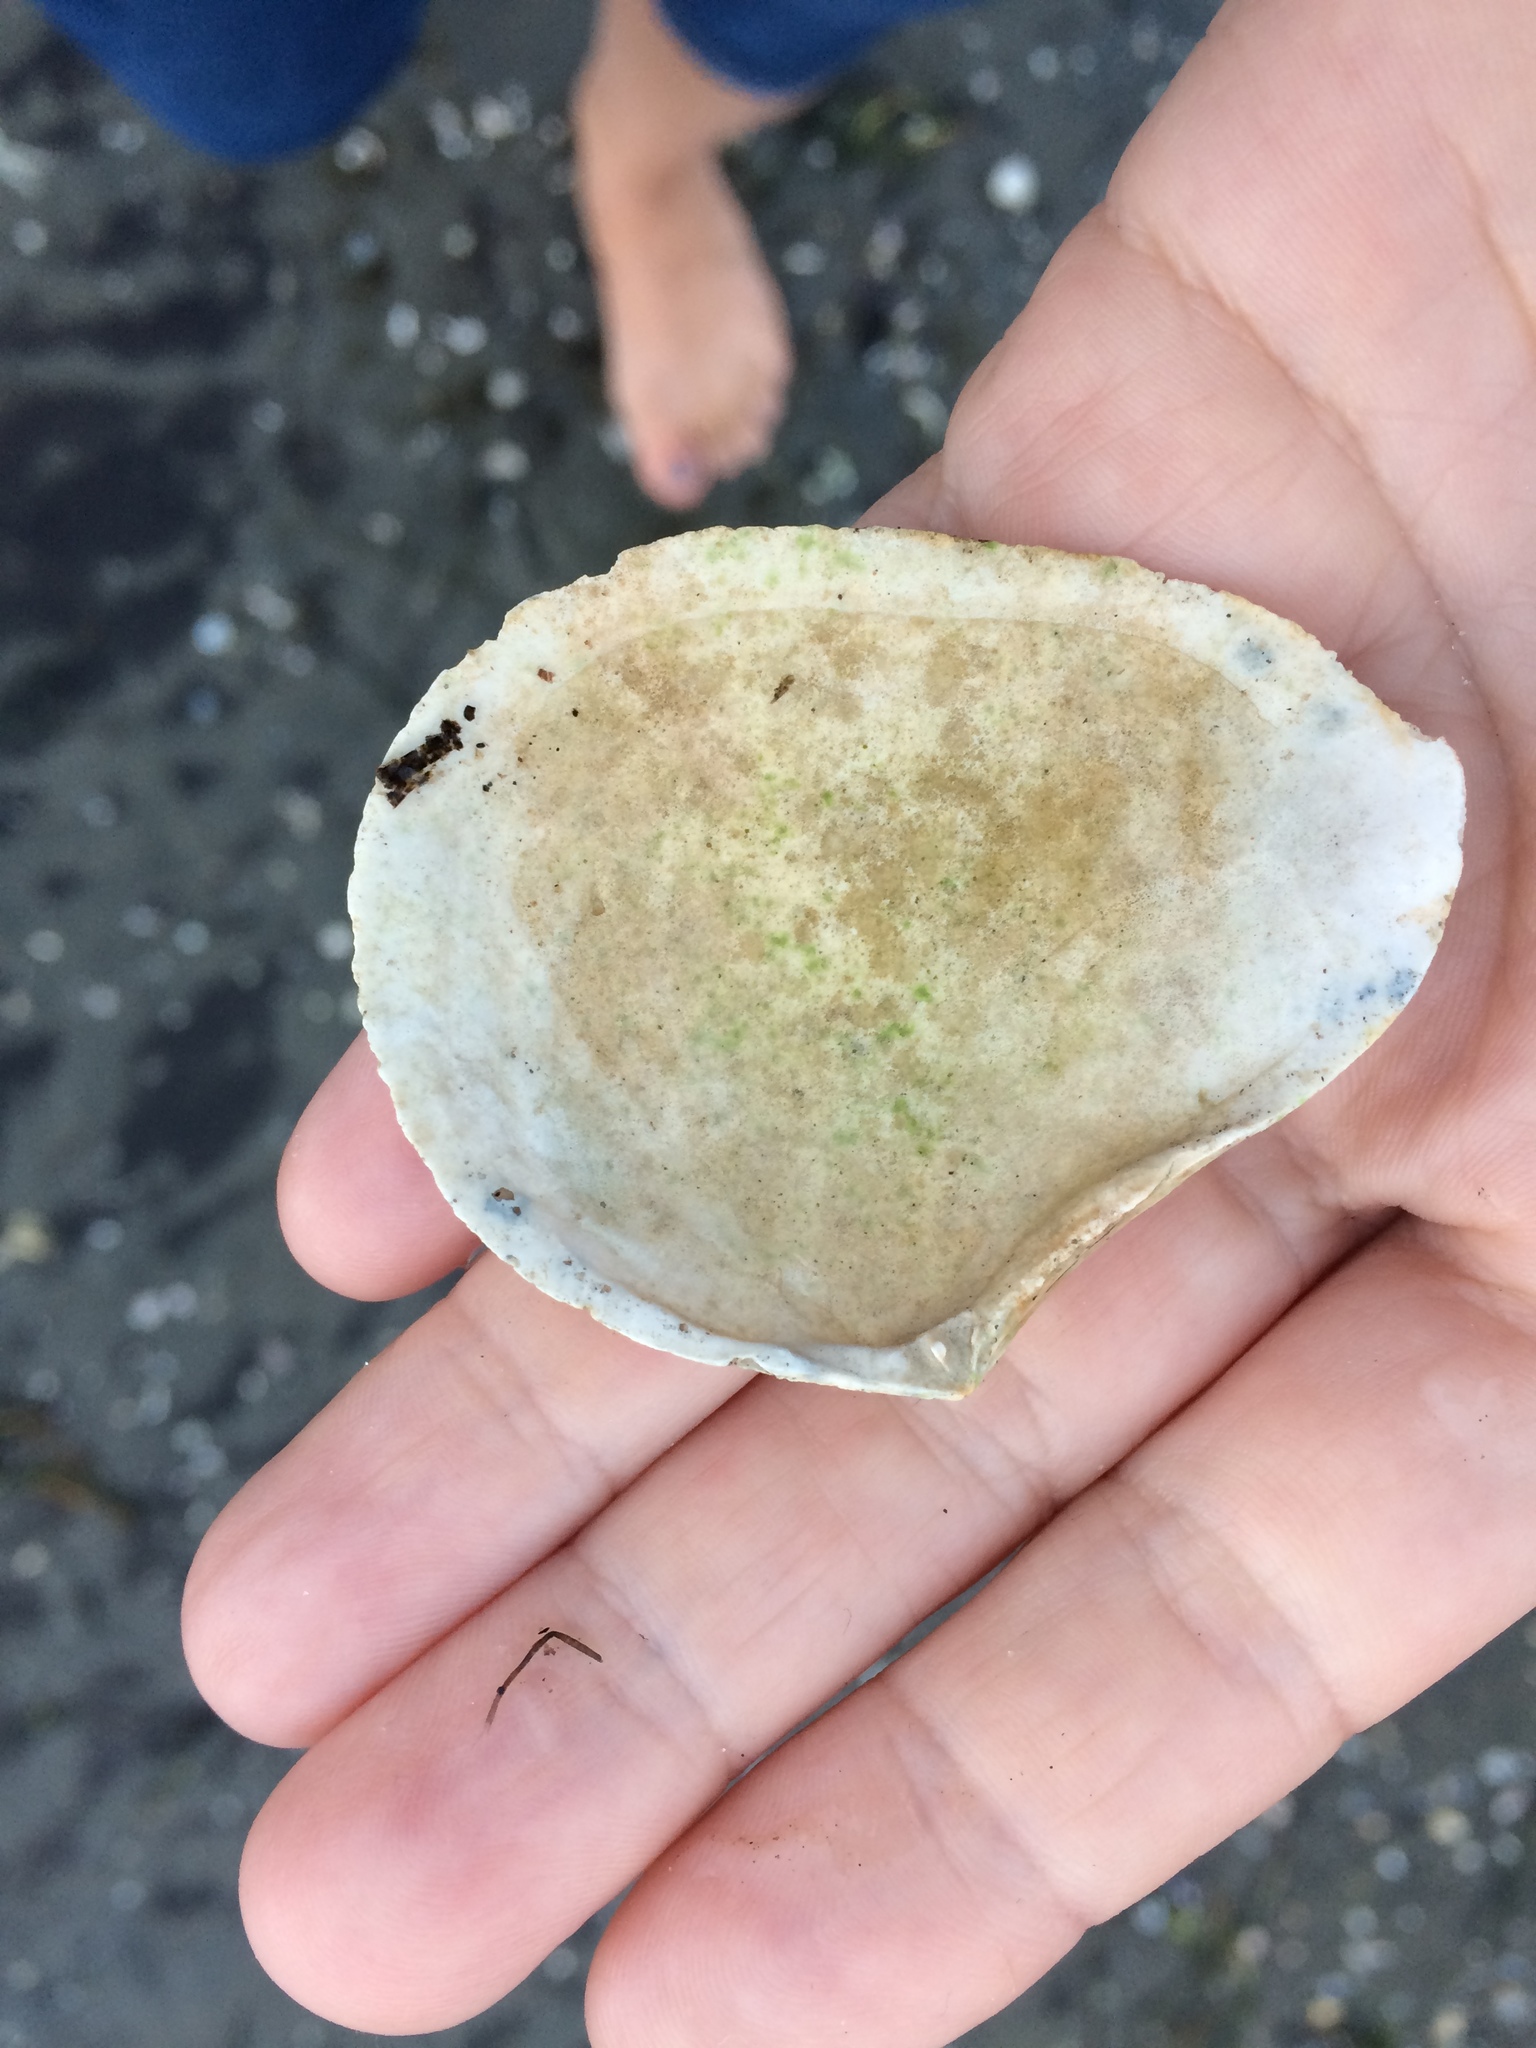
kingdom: Animalia
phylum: Mollusca
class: Bivalvia
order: Cardiida
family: Tellinidae
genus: Macomona
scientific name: Macomona liliana
